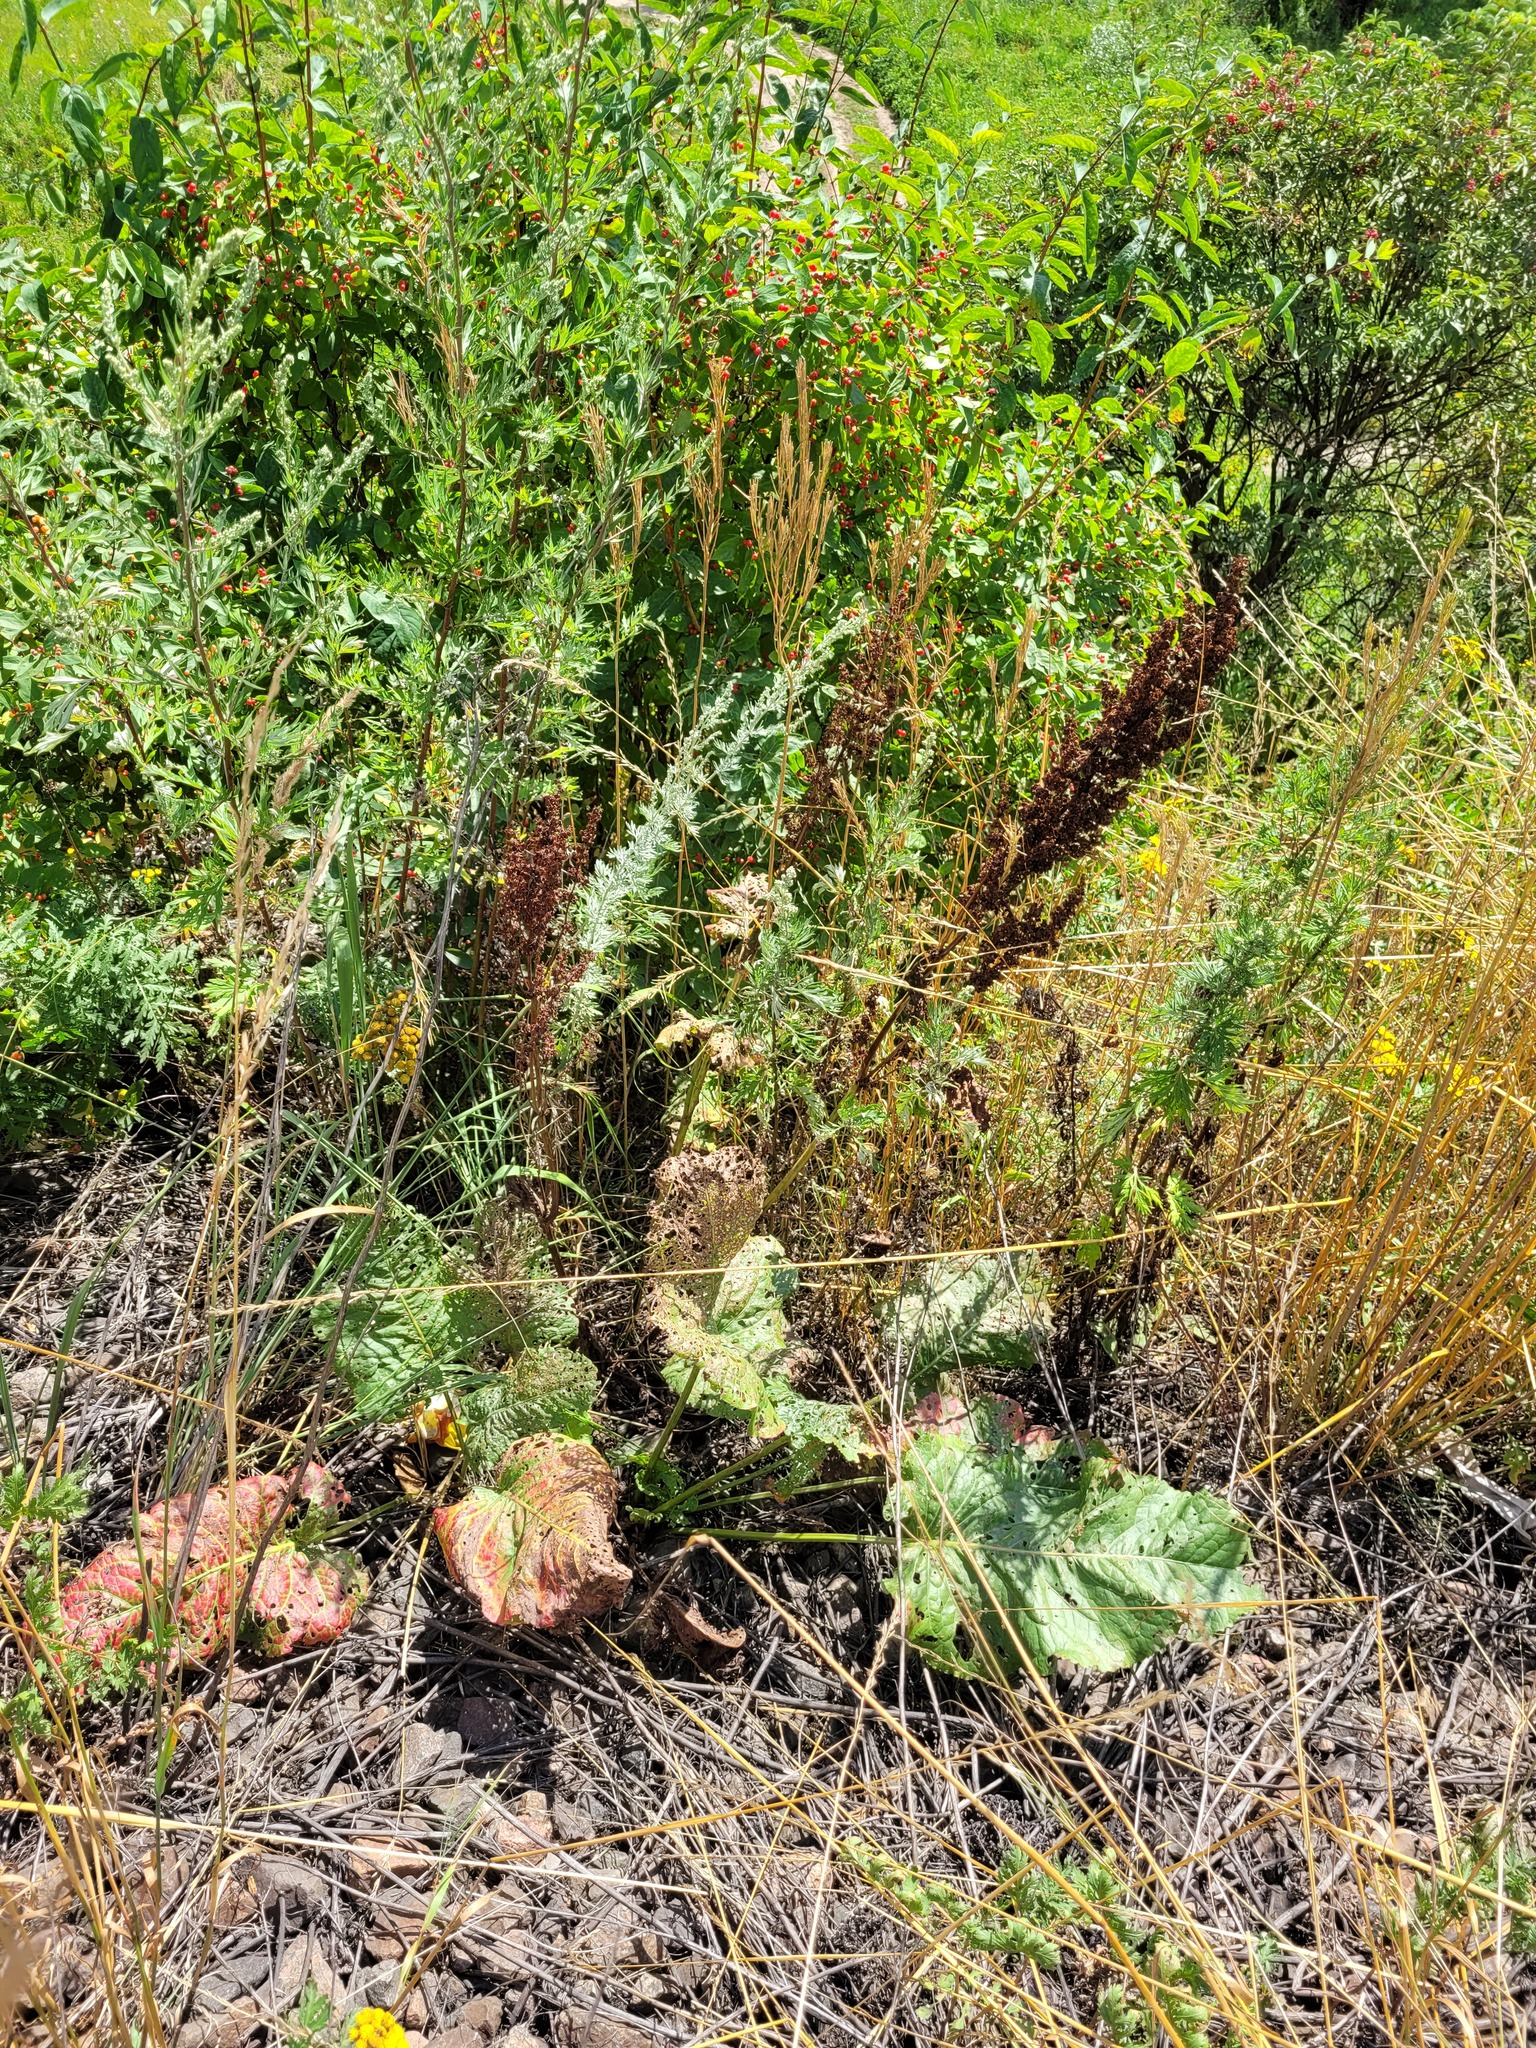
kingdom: Plantae
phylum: Tracheophyta
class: Magnoliopsida
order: Caryophyllales
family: Polygonaceae
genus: Rumex
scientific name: Rumex confertus
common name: Russian dock
